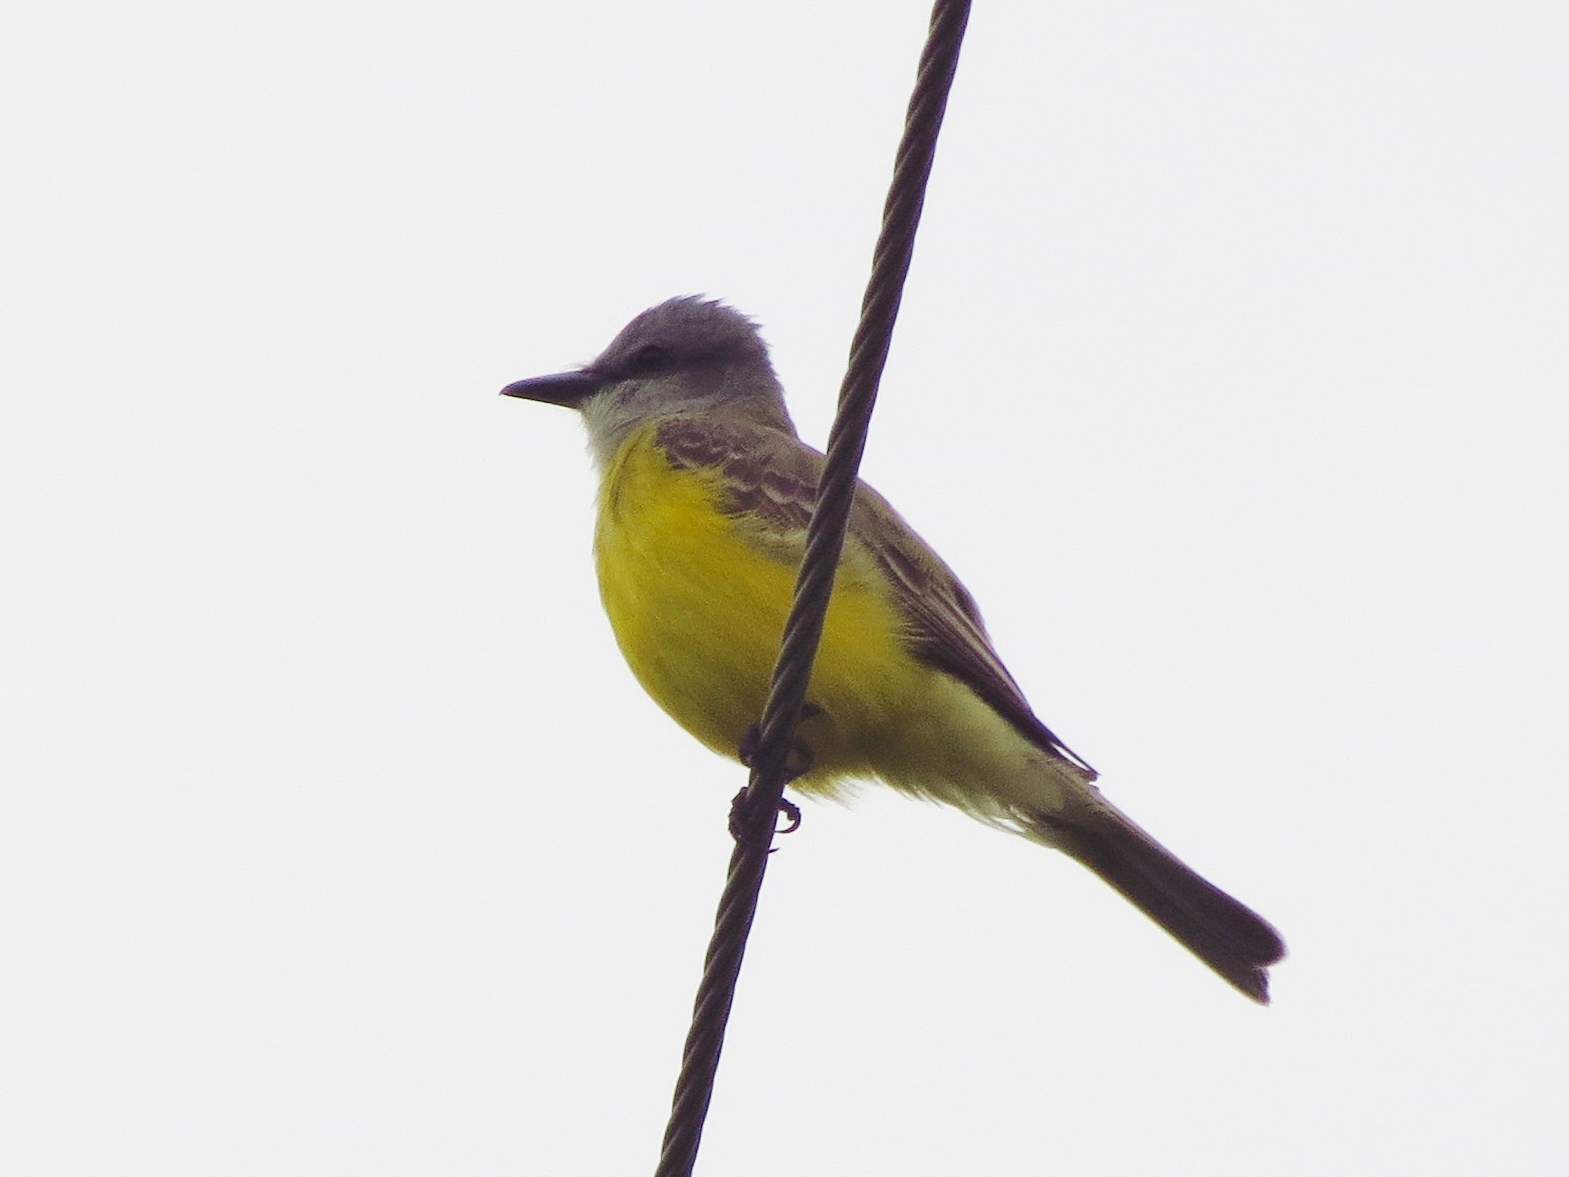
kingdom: Animalia
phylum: Chordata
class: Aves
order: Passeriformes
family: Tyrannidae
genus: Tyrannus
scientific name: Tyrannus couchii
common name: Couch's kingbird
